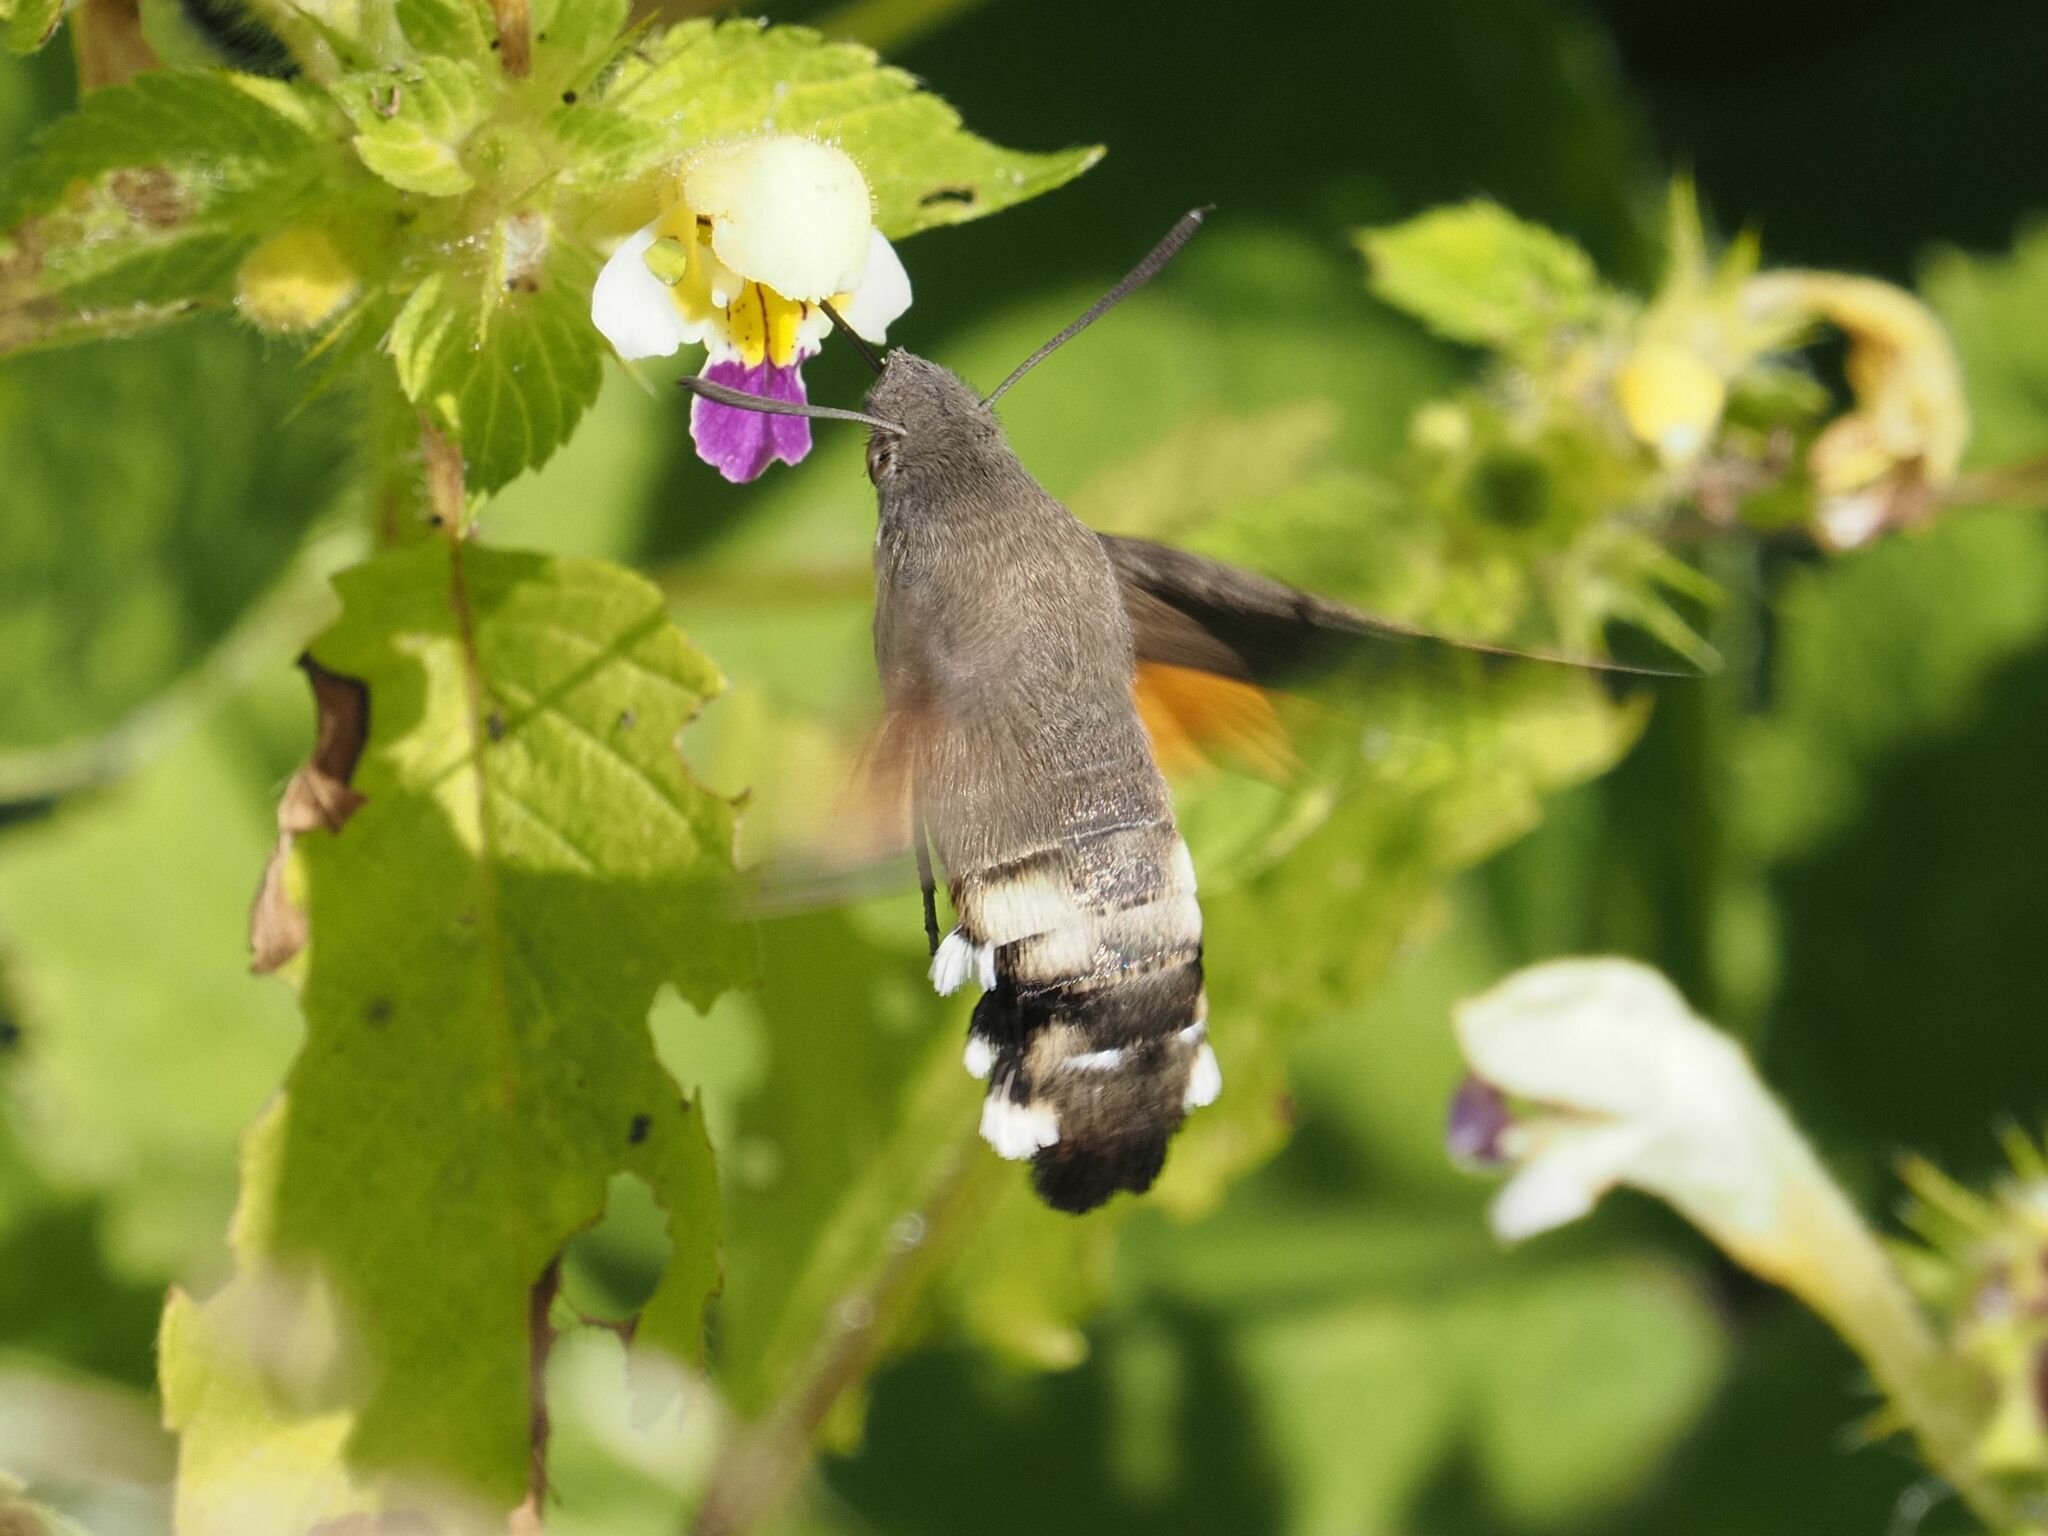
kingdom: Animalia
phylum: Arthropoda
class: Insecta
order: Lepidoptera
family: Sphingidae
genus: Macroglossum
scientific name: Macroglossum stellatarum
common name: Humming-bird hawk-moth
